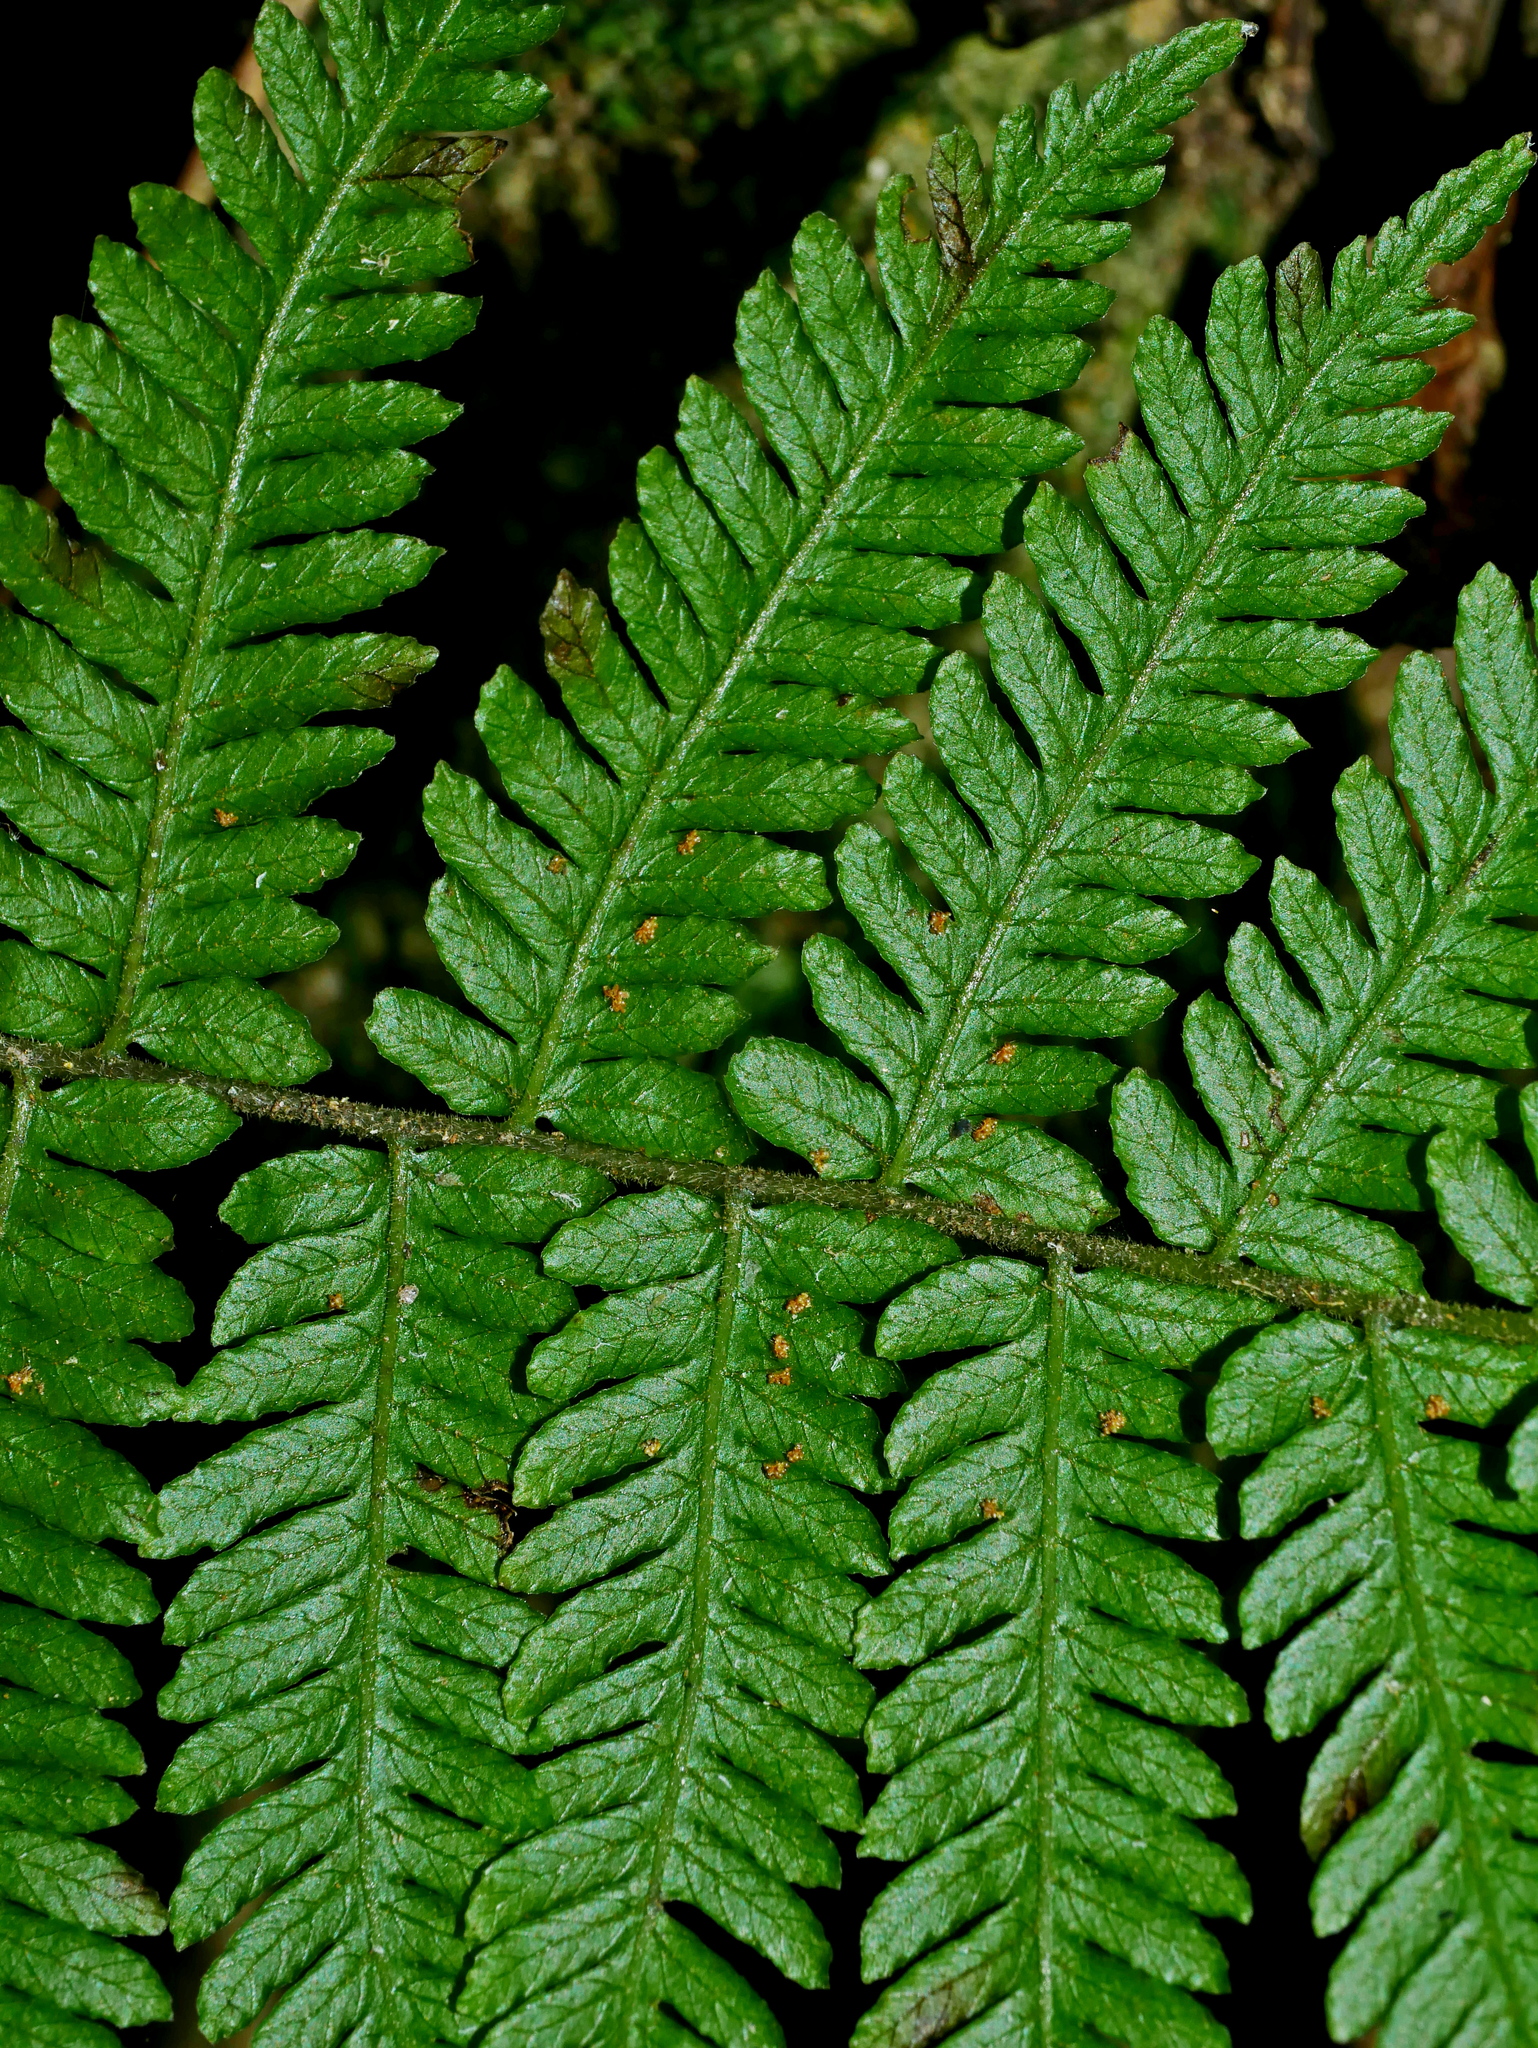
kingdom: Plantae
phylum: Tracheophyta
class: Polypodiopsida
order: Polypodiales
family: Thelypteridaceae
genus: Amauropelta
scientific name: Amauropelta glanduligera
